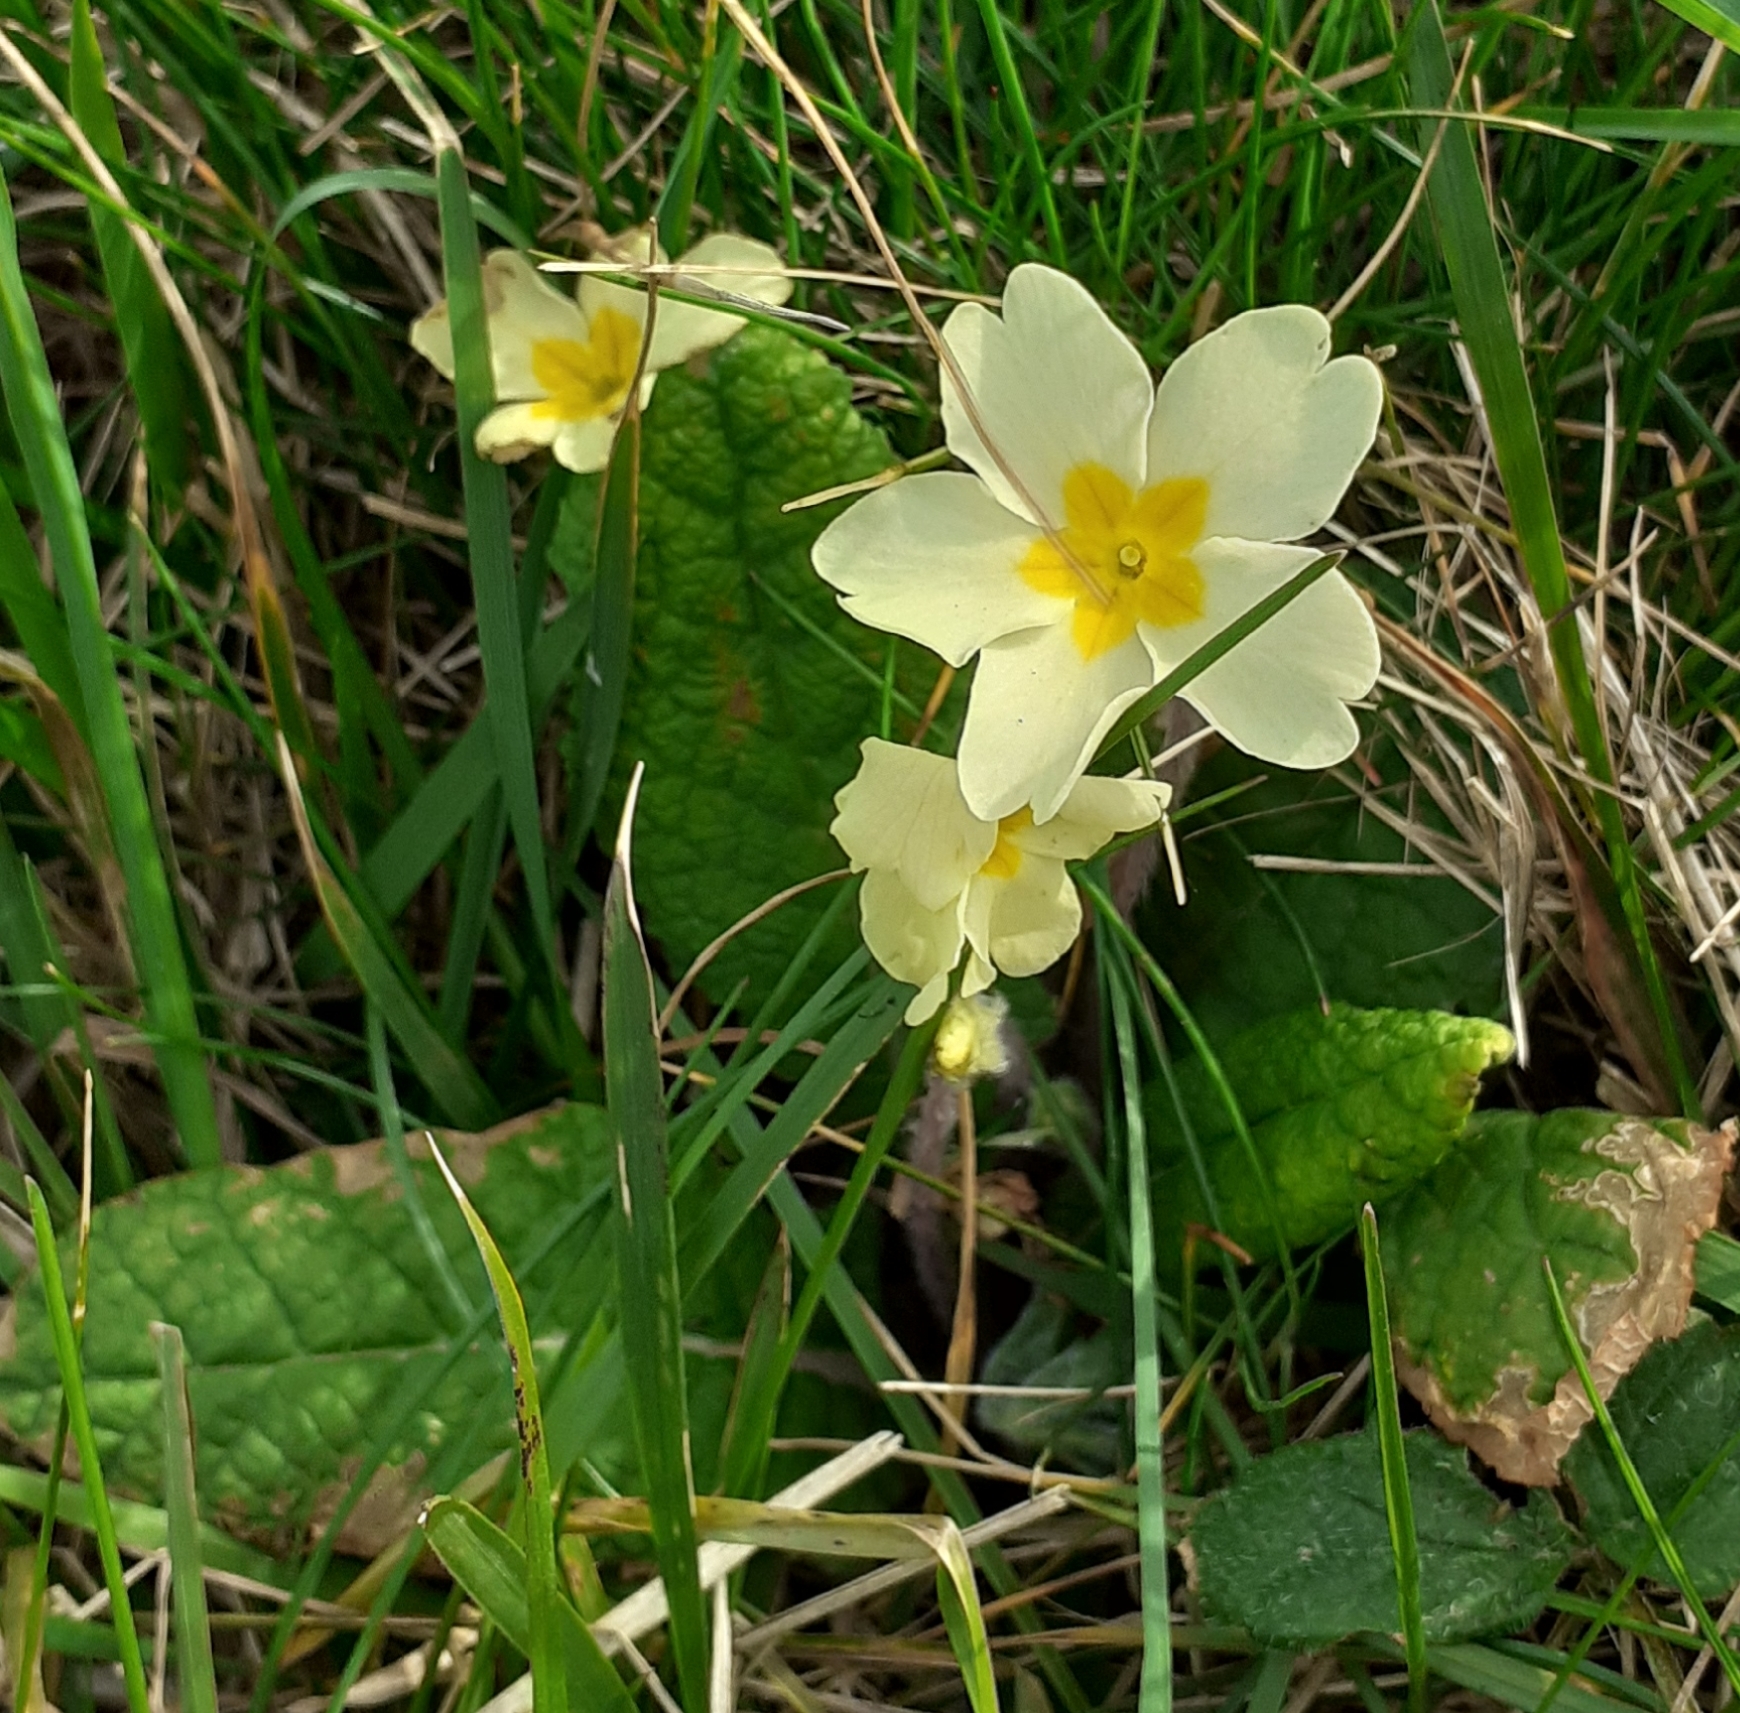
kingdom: Plantae
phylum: Tracheophyta
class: Magnoliopsida
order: Ericales
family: Primulaceae
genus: Primula
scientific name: Primula vulgaris
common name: Primrose
